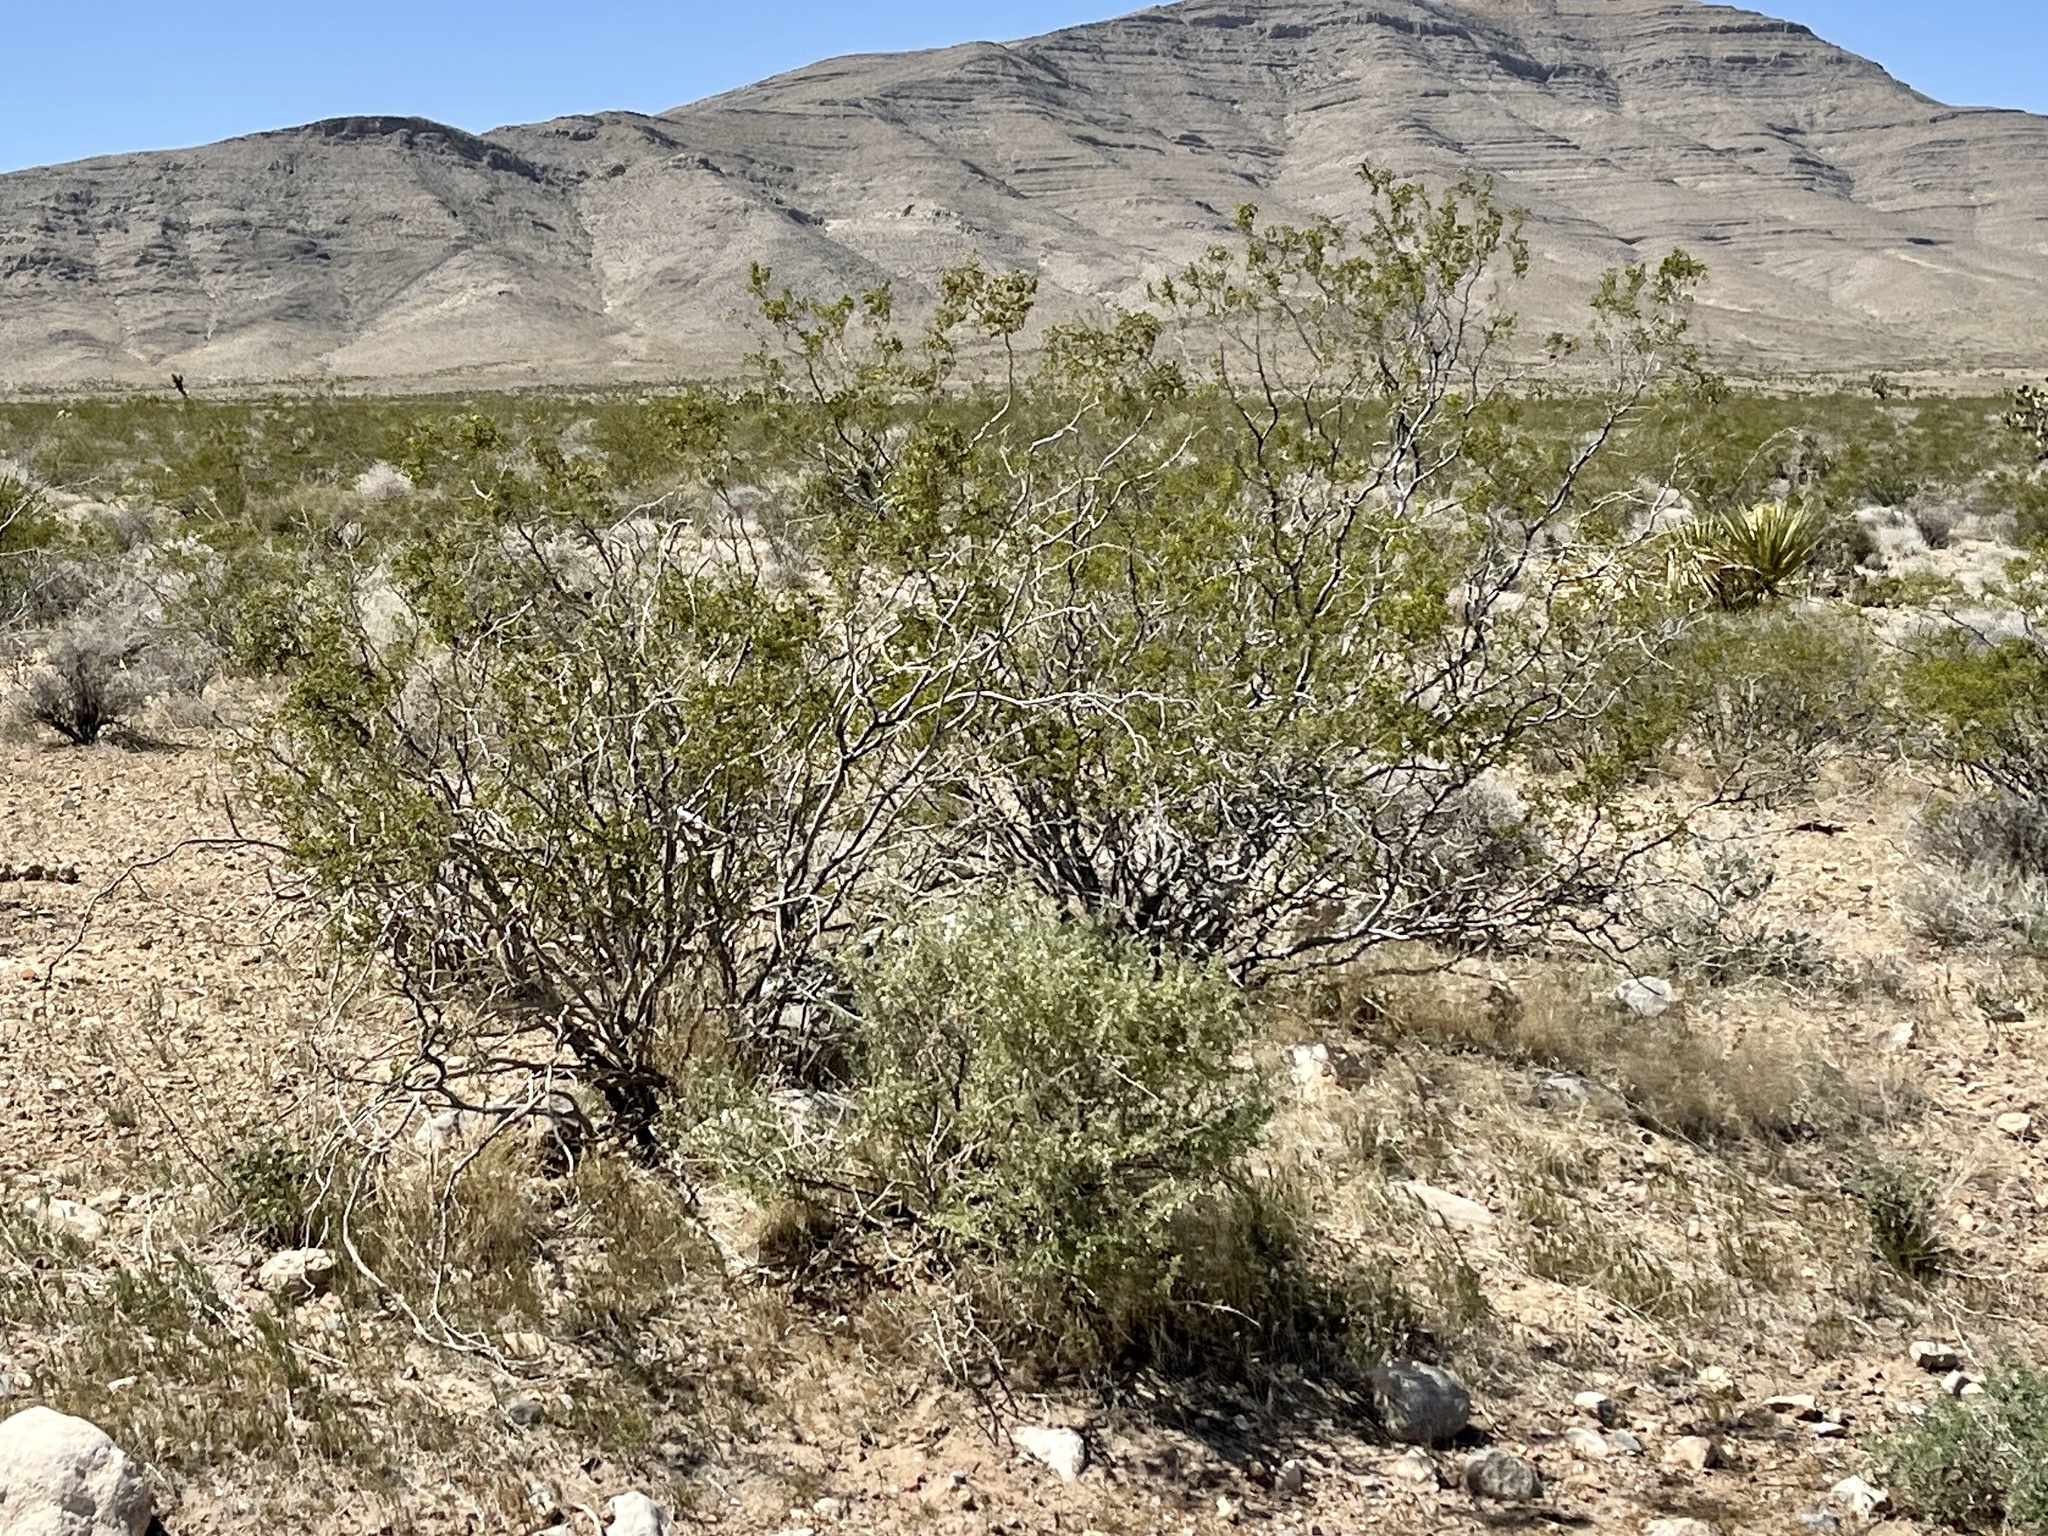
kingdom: Plantae
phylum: Tracheophyta
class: Magnoliopsida
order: Zygophyllales
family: Zygophyllaceae
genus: Larrea
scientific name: Larrea tridentata
